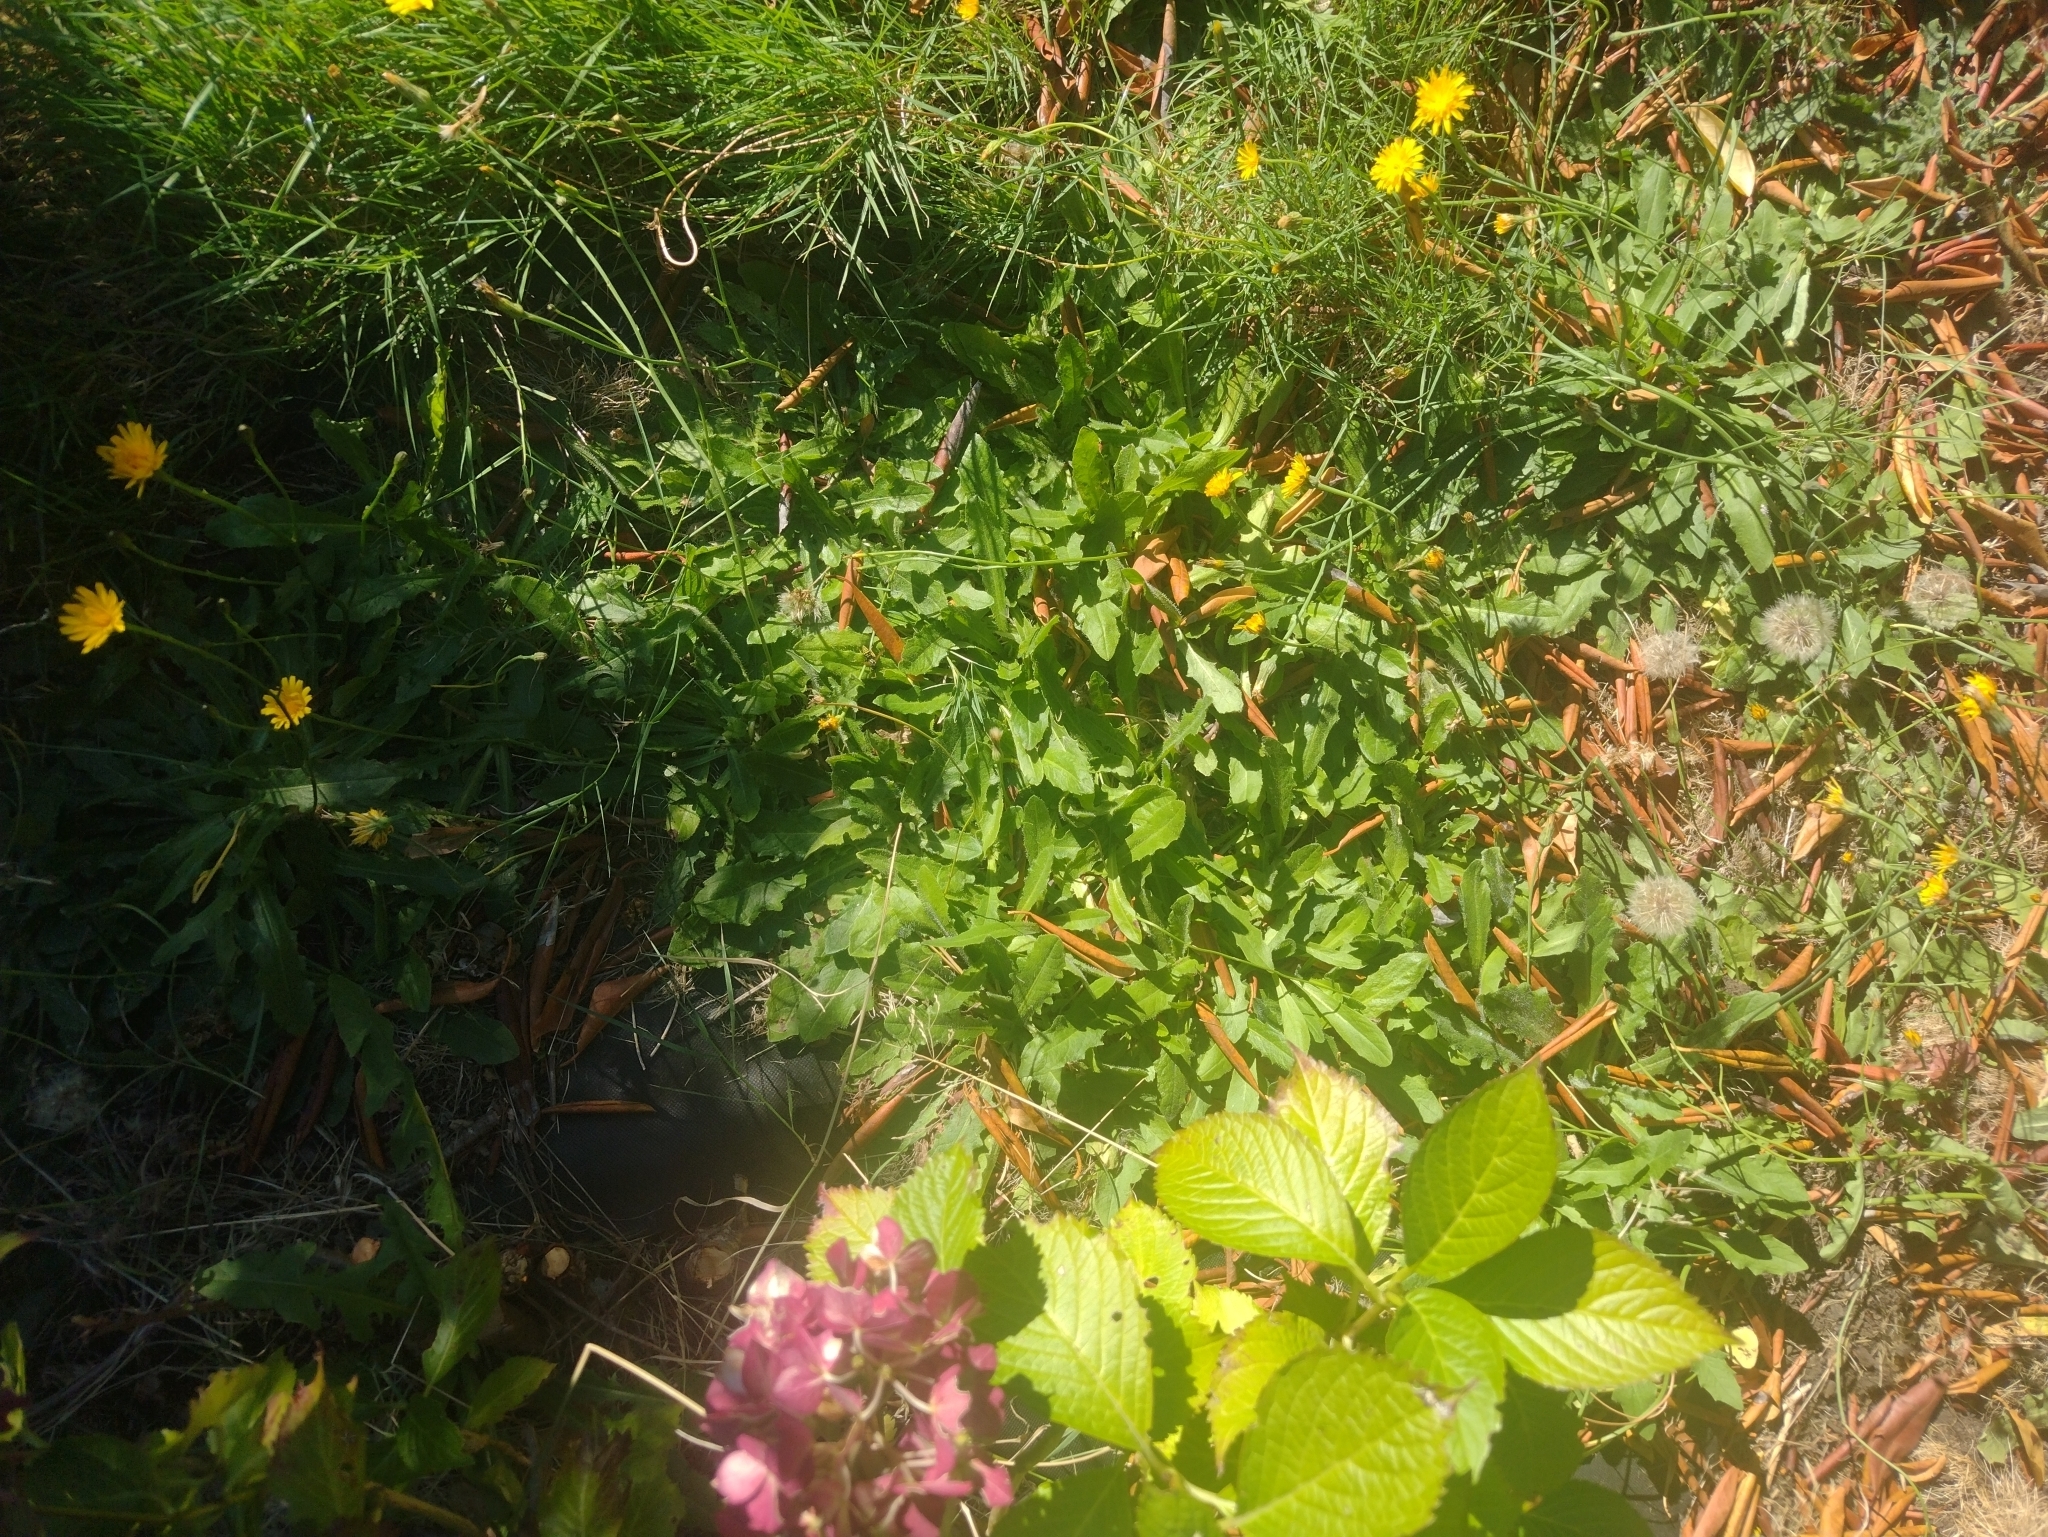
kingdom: Plantae
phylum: Tracheophyta
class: Magnoliopsida
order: Asterales
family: Asteraceae
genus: Hypochaeris
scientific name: Hypochaeris radicata
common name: Flatweed
